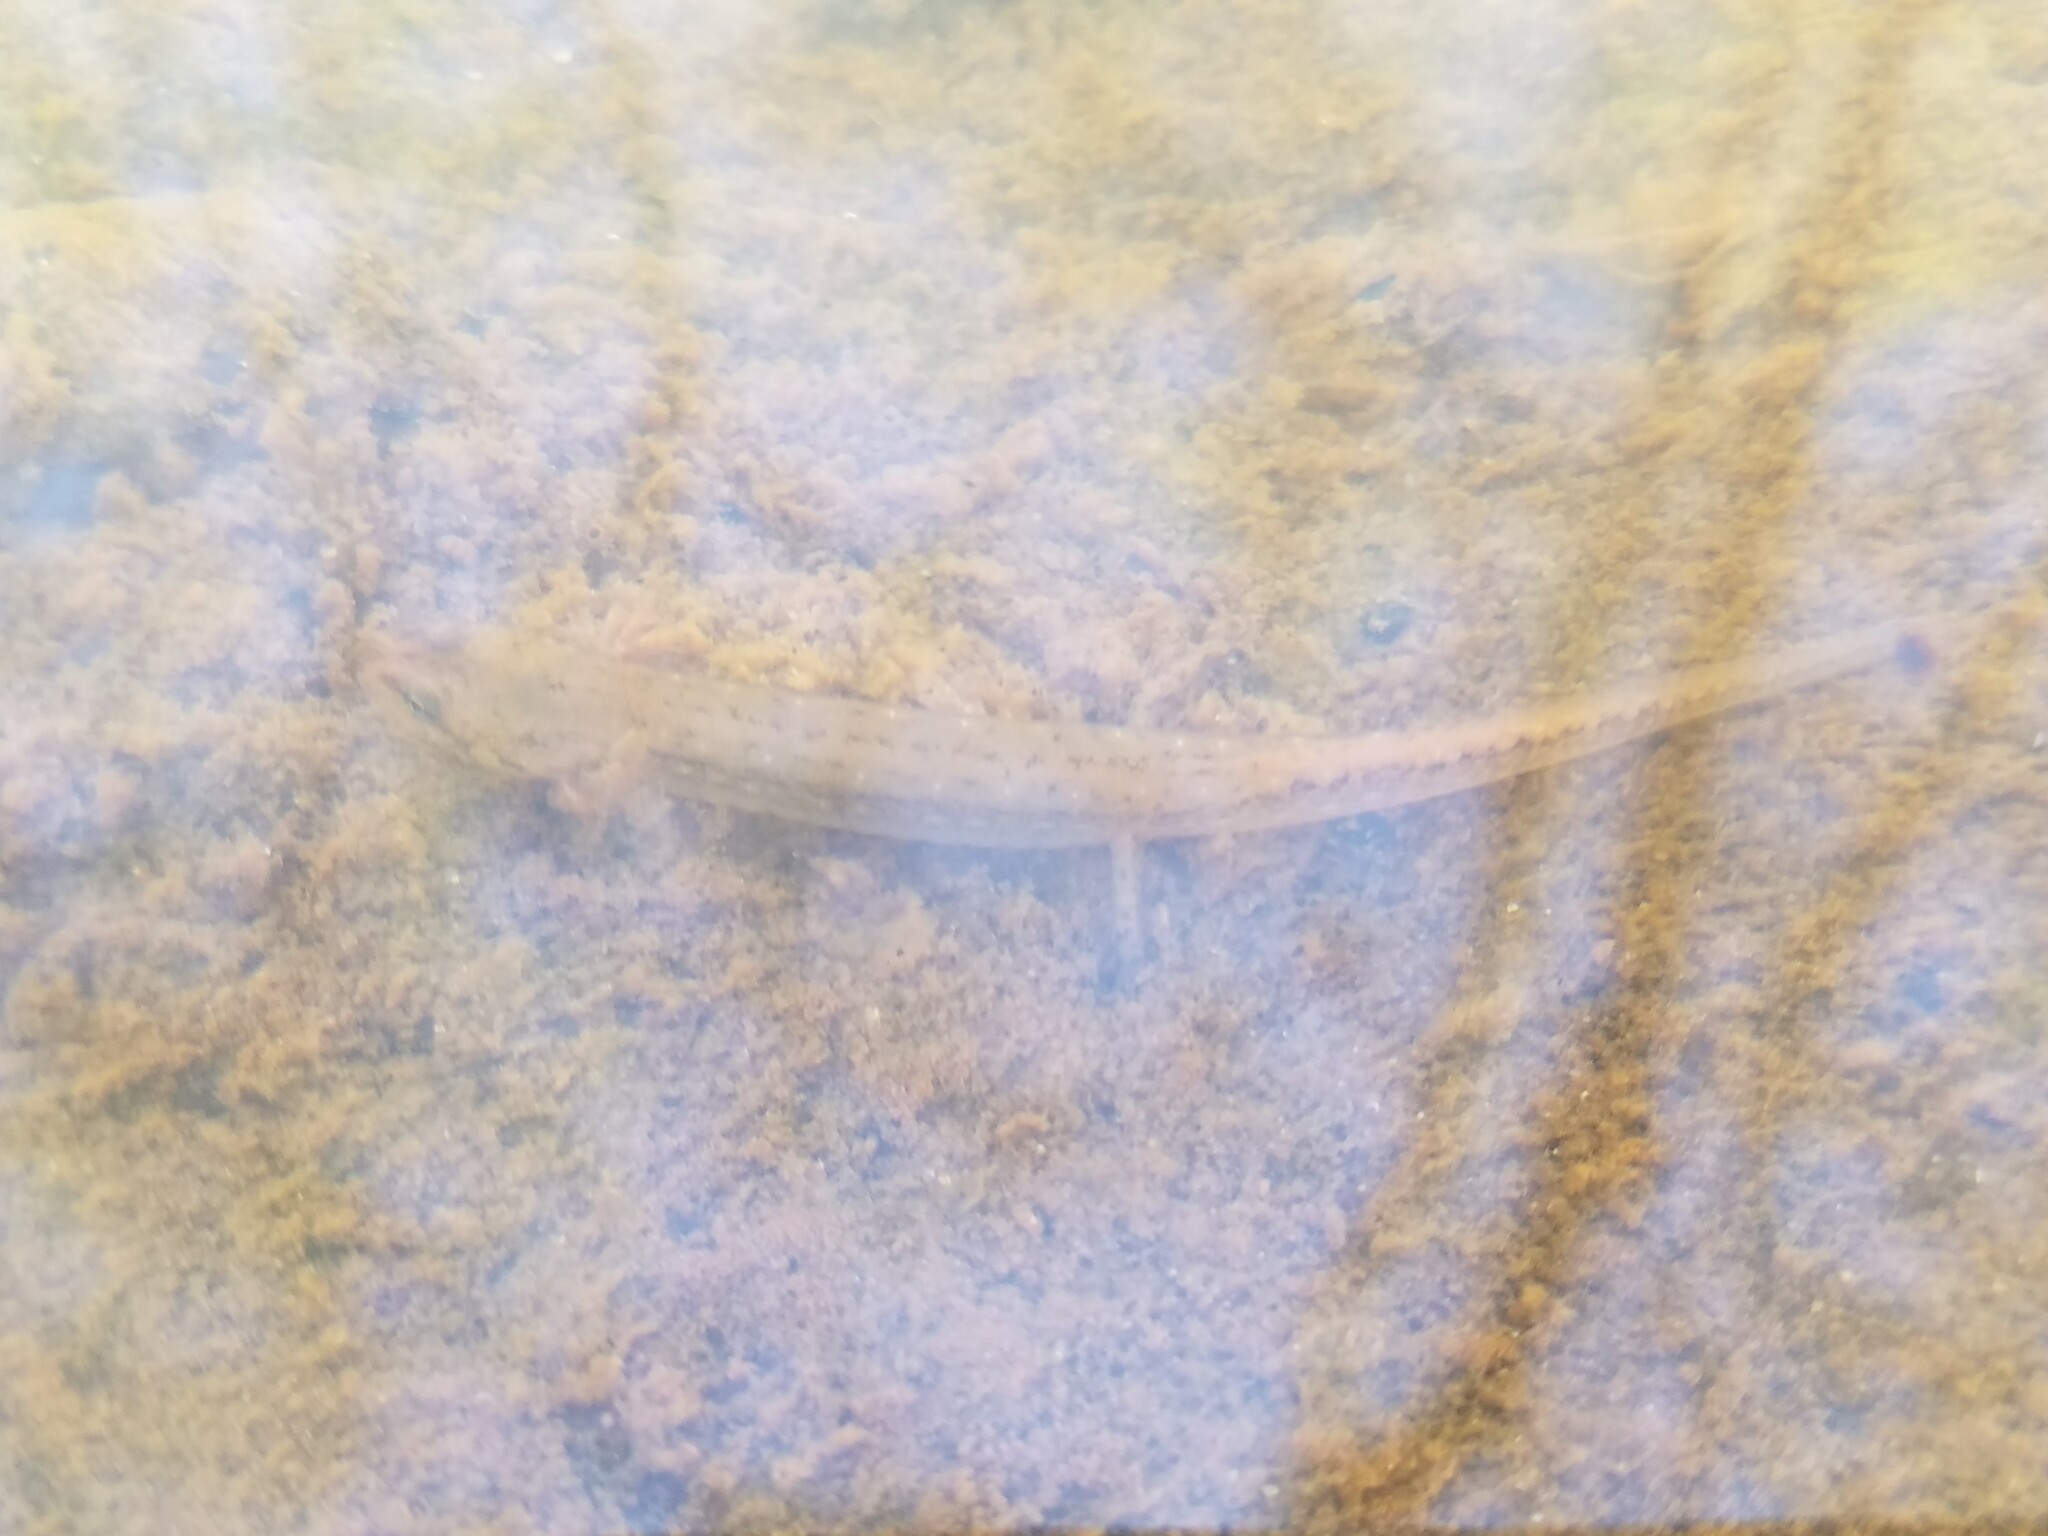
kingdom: Animalia
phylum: Chordata
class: Amphibia
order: Caudata
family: Plethodontidae
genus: Eurycea
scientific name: Eurycea cirrigera
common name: Southern two-lined salamander
